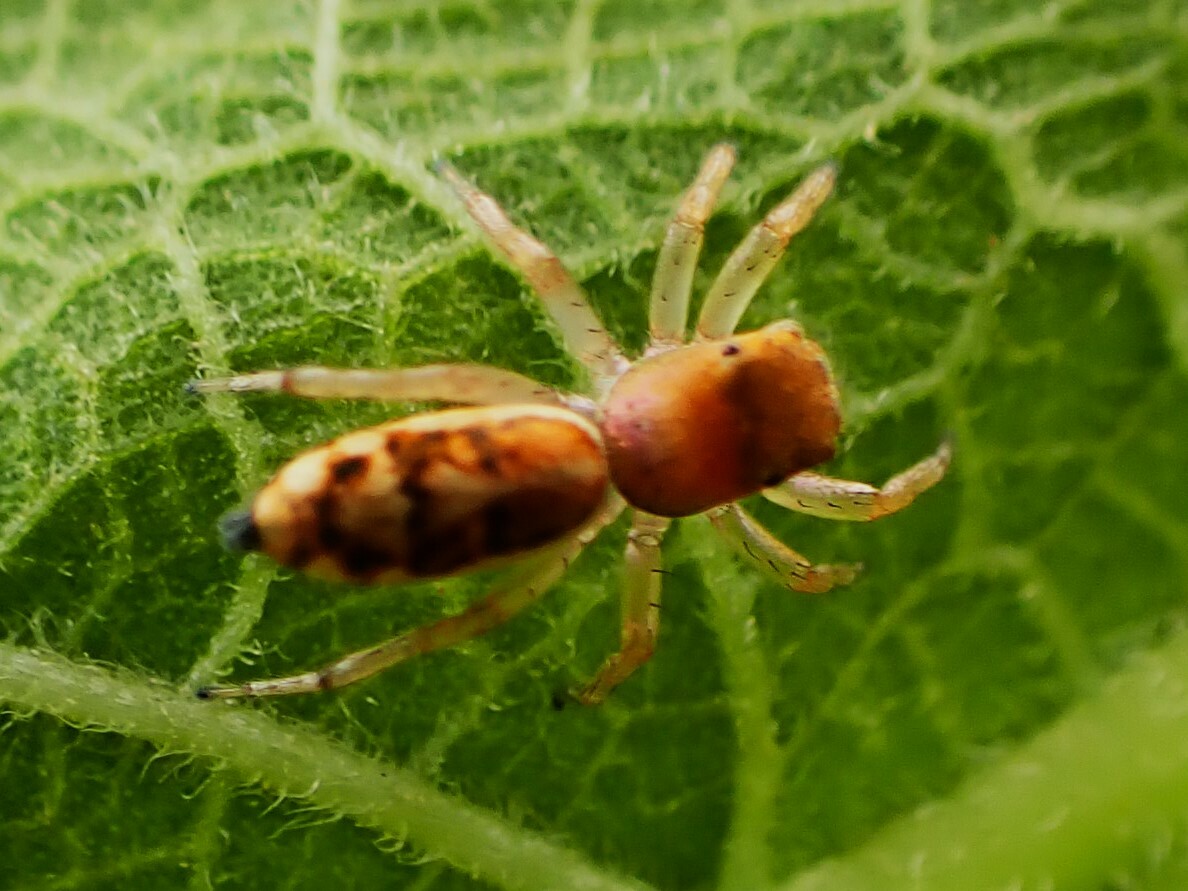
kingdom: Animalia
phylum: Arthropoda
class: Arachnida
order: Araneae
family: Salticidae
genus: Cosmophasis
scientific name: Cosmophasis lami
